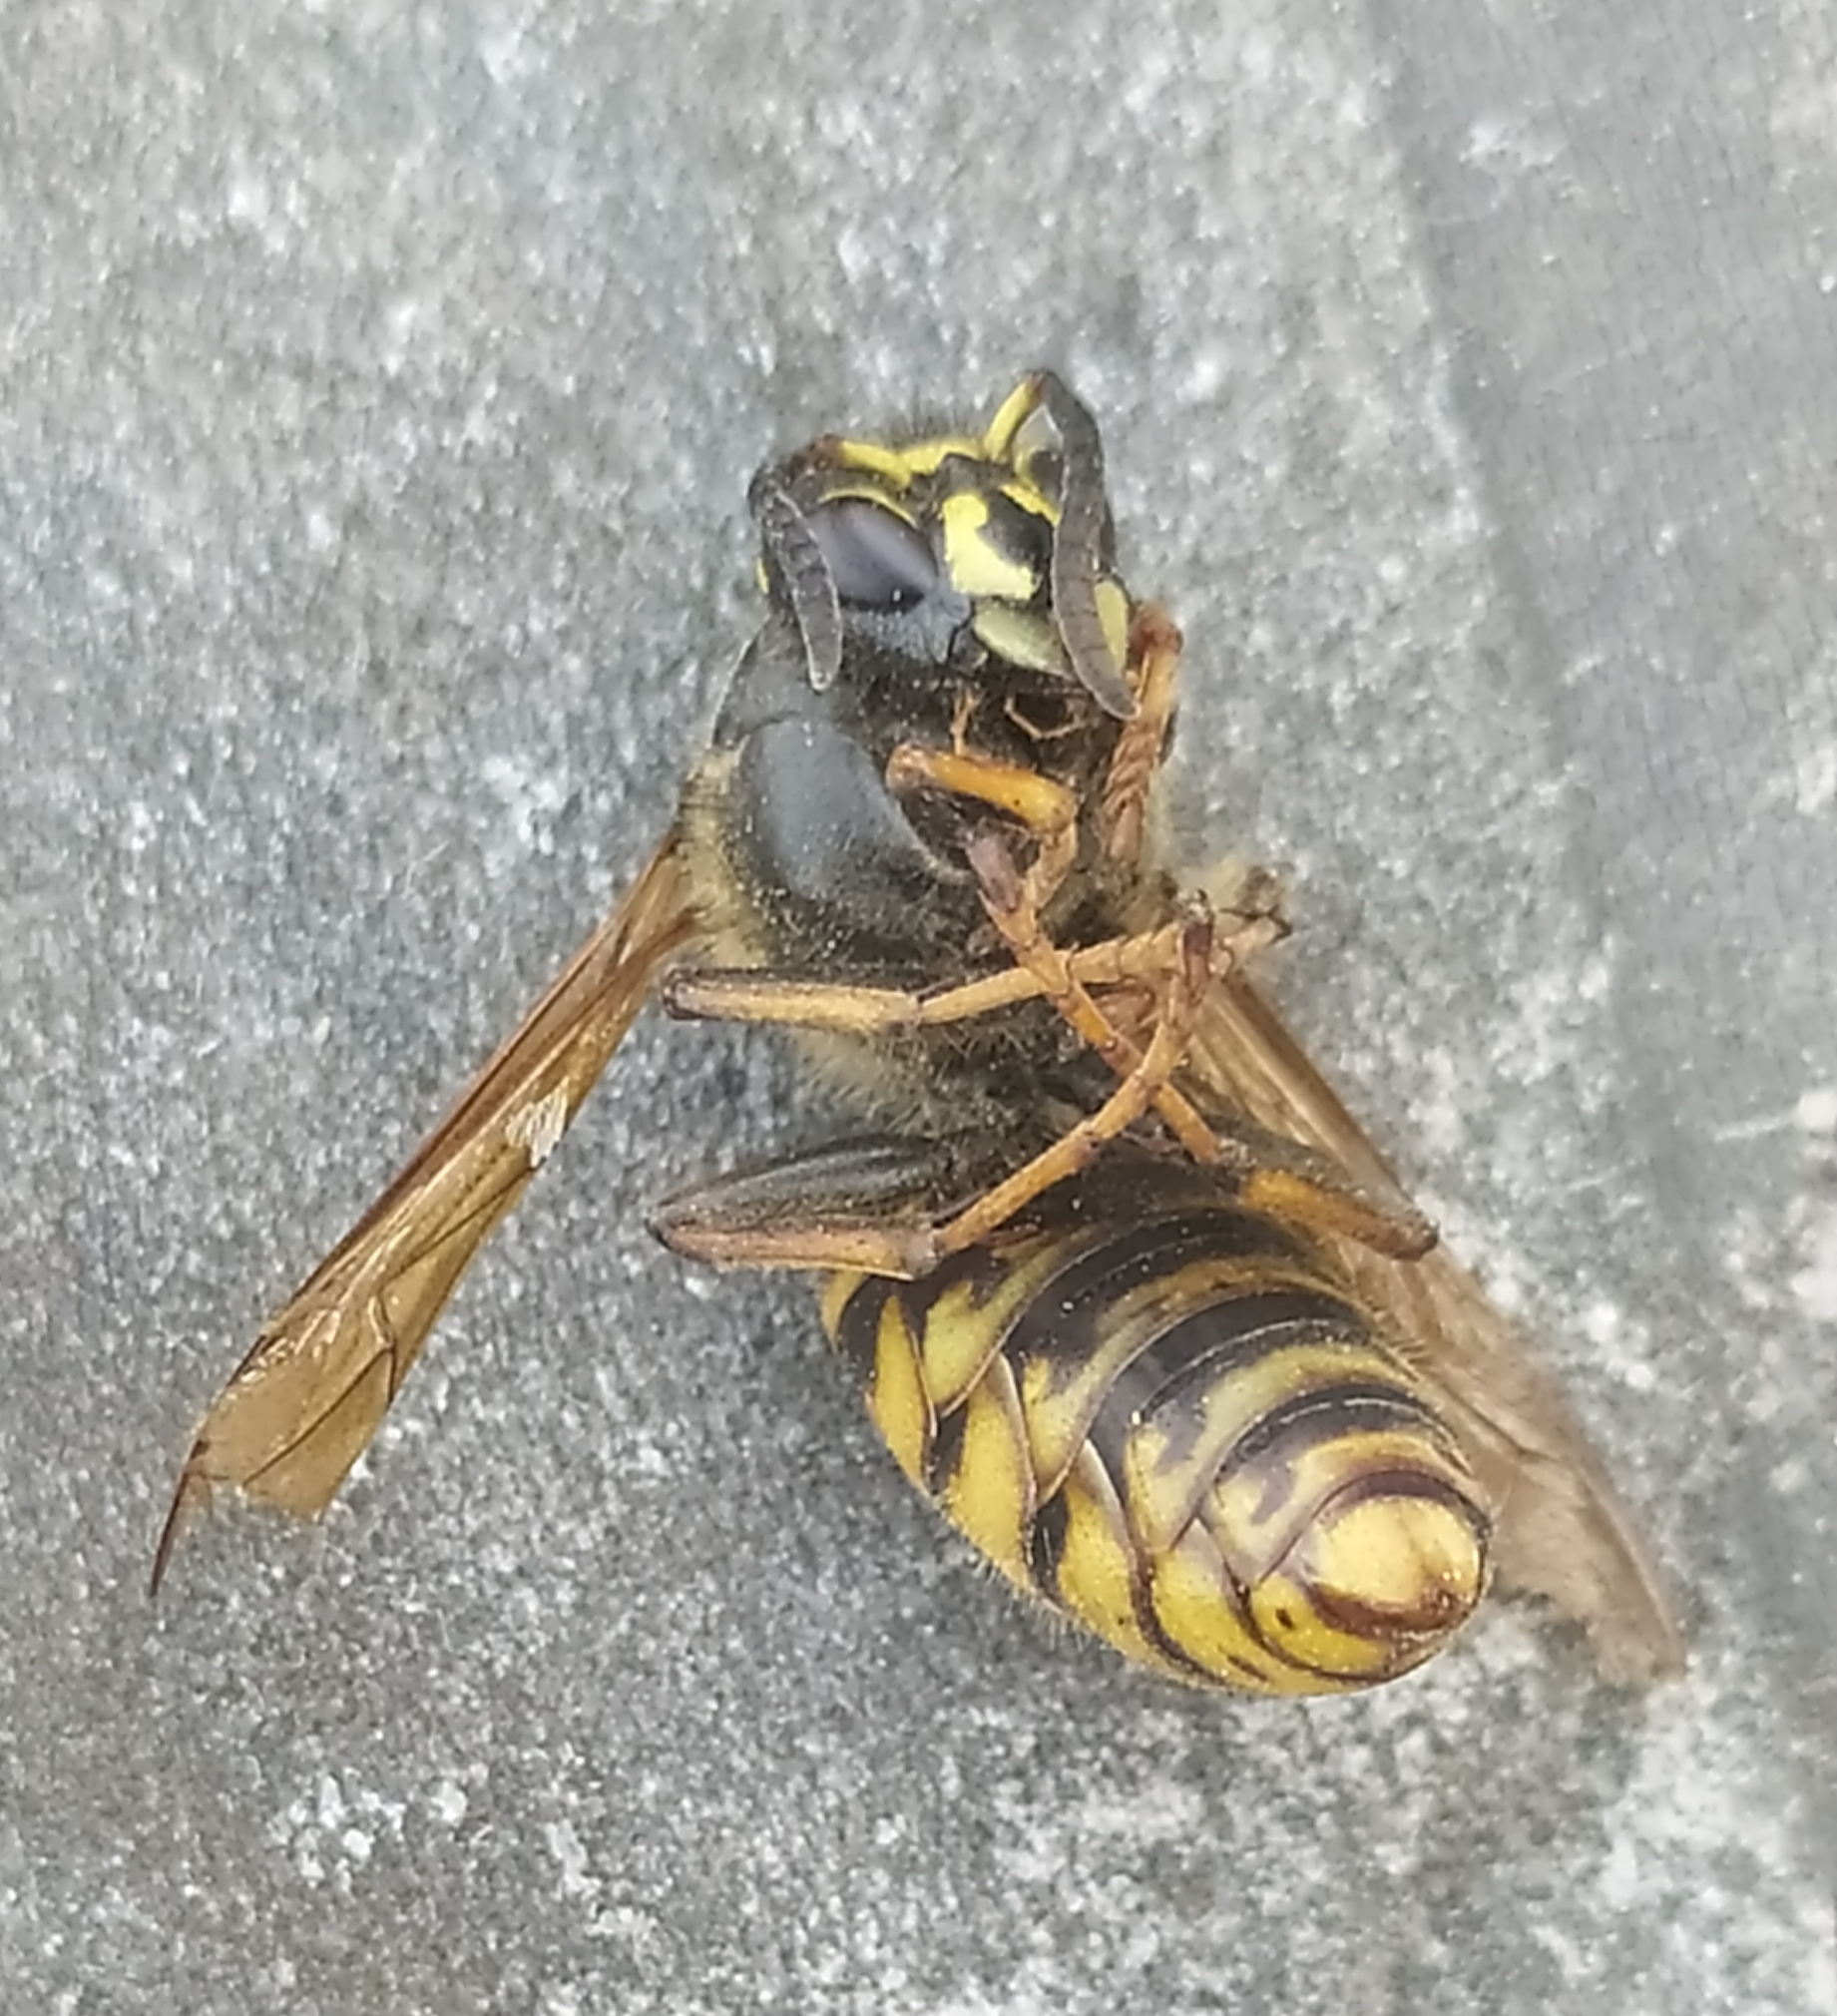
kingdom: Animalia
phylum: Arthropoda
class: Insecta
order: Hymenoptera
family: Vespidae
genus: Dolichovespula
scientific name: Dolichovespula saxonica
